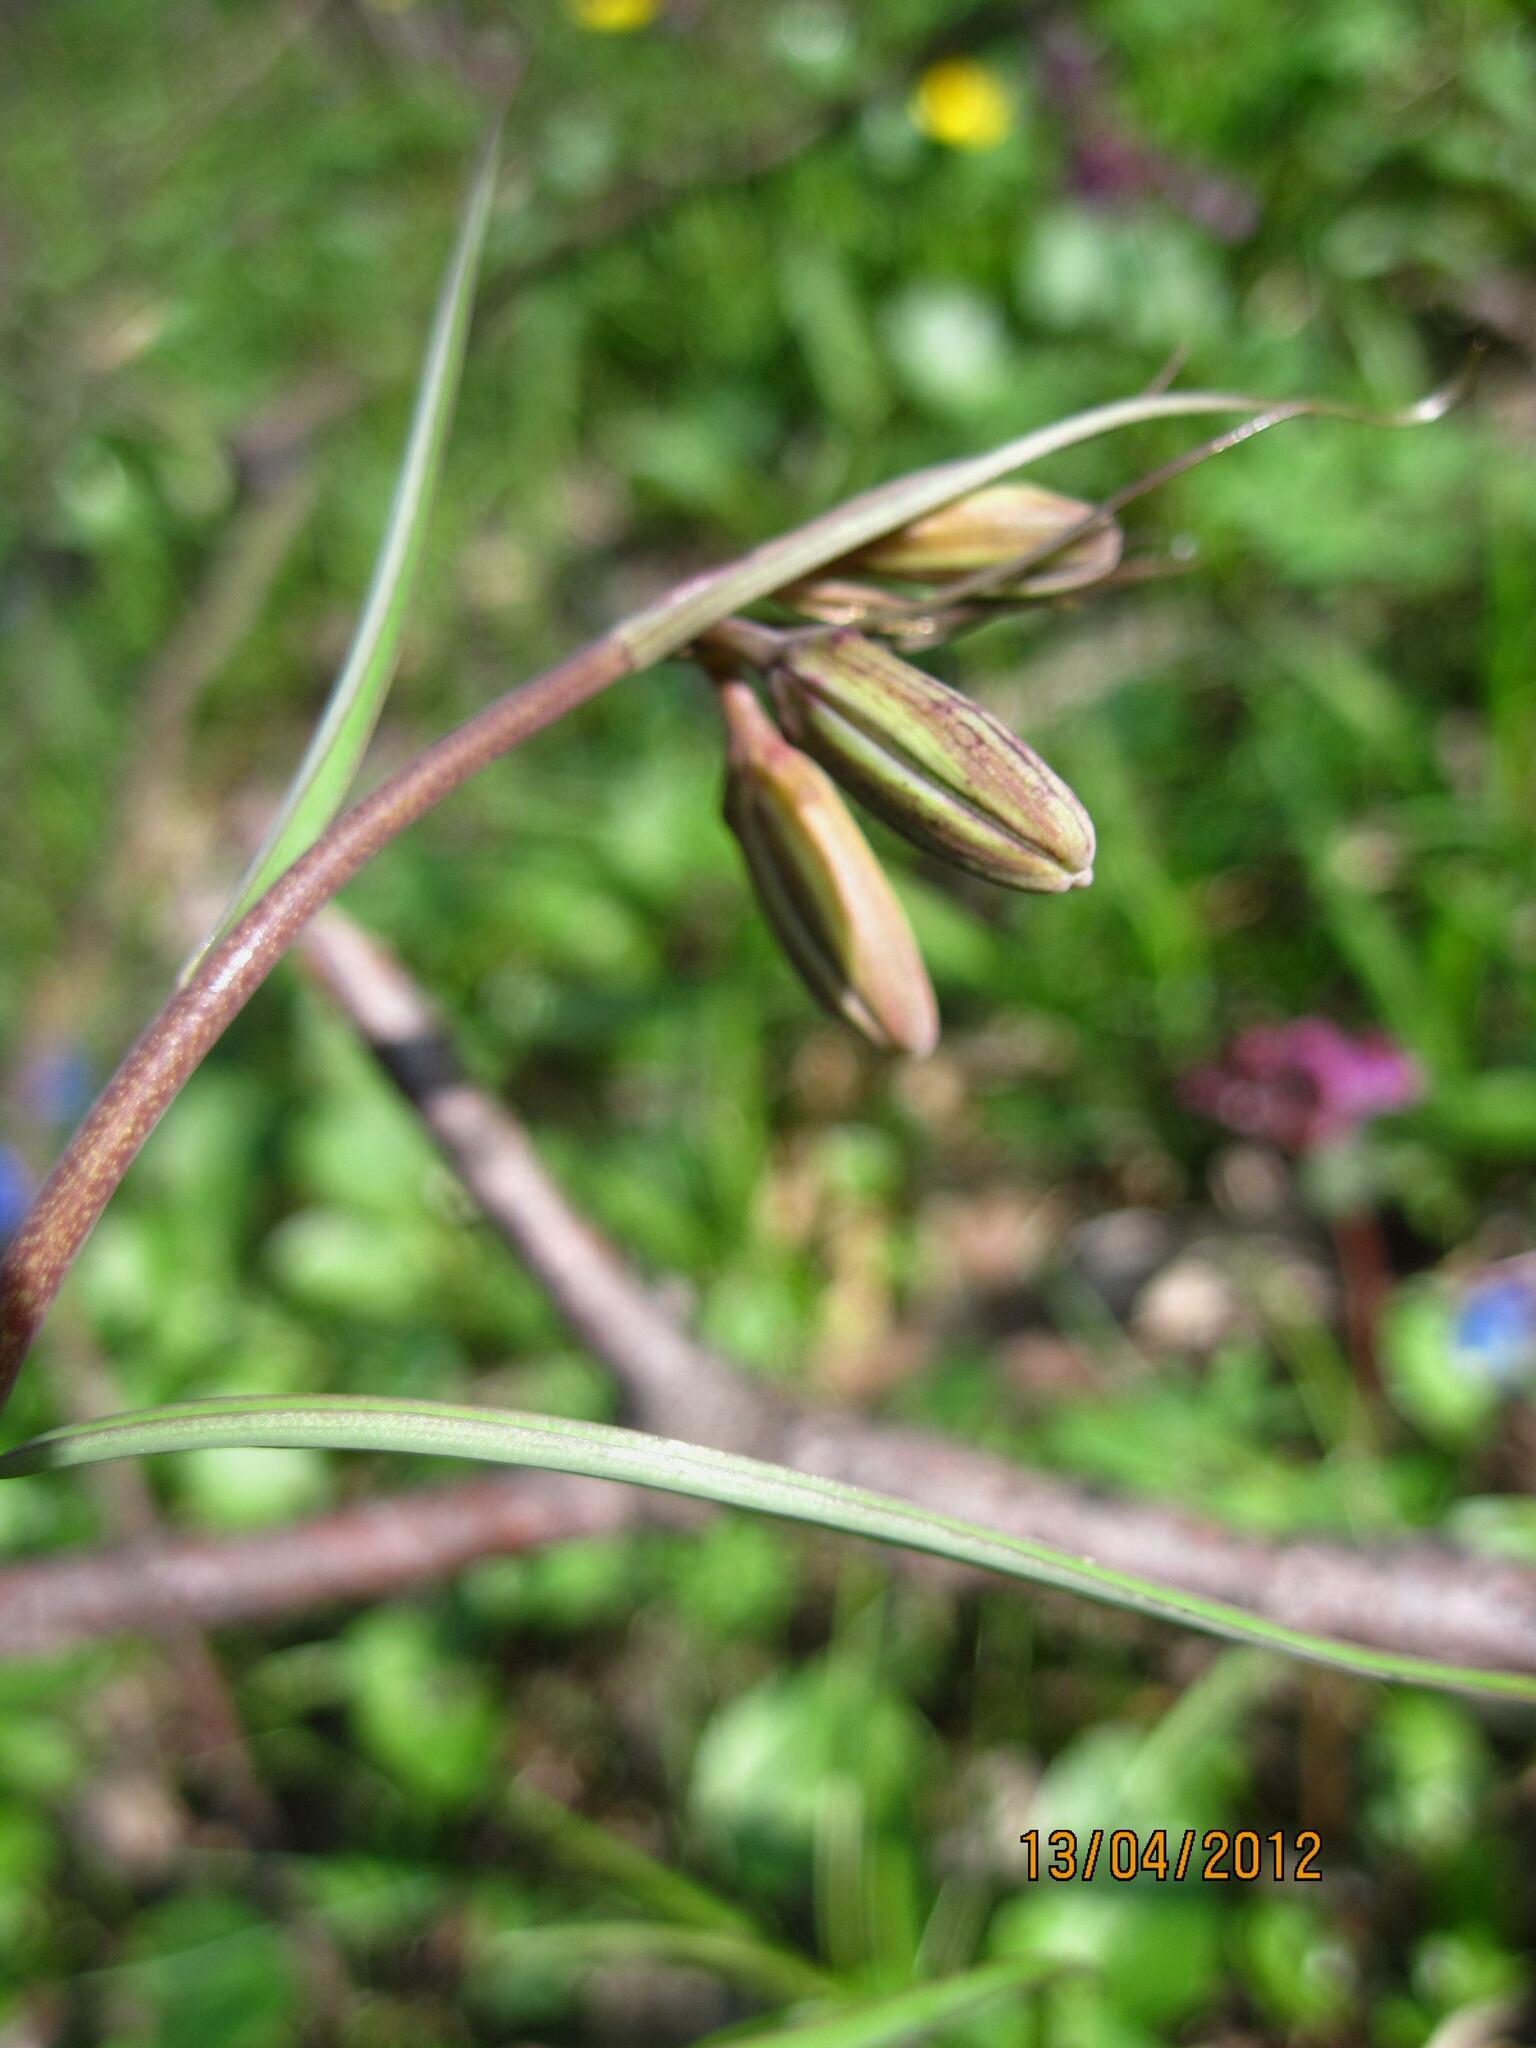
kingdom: Plantae
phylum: Tracheophyta
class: Liliopsida
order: Liliales
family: Liliaceae
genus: Fritillaria
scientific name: Fritillaria ruthenica
